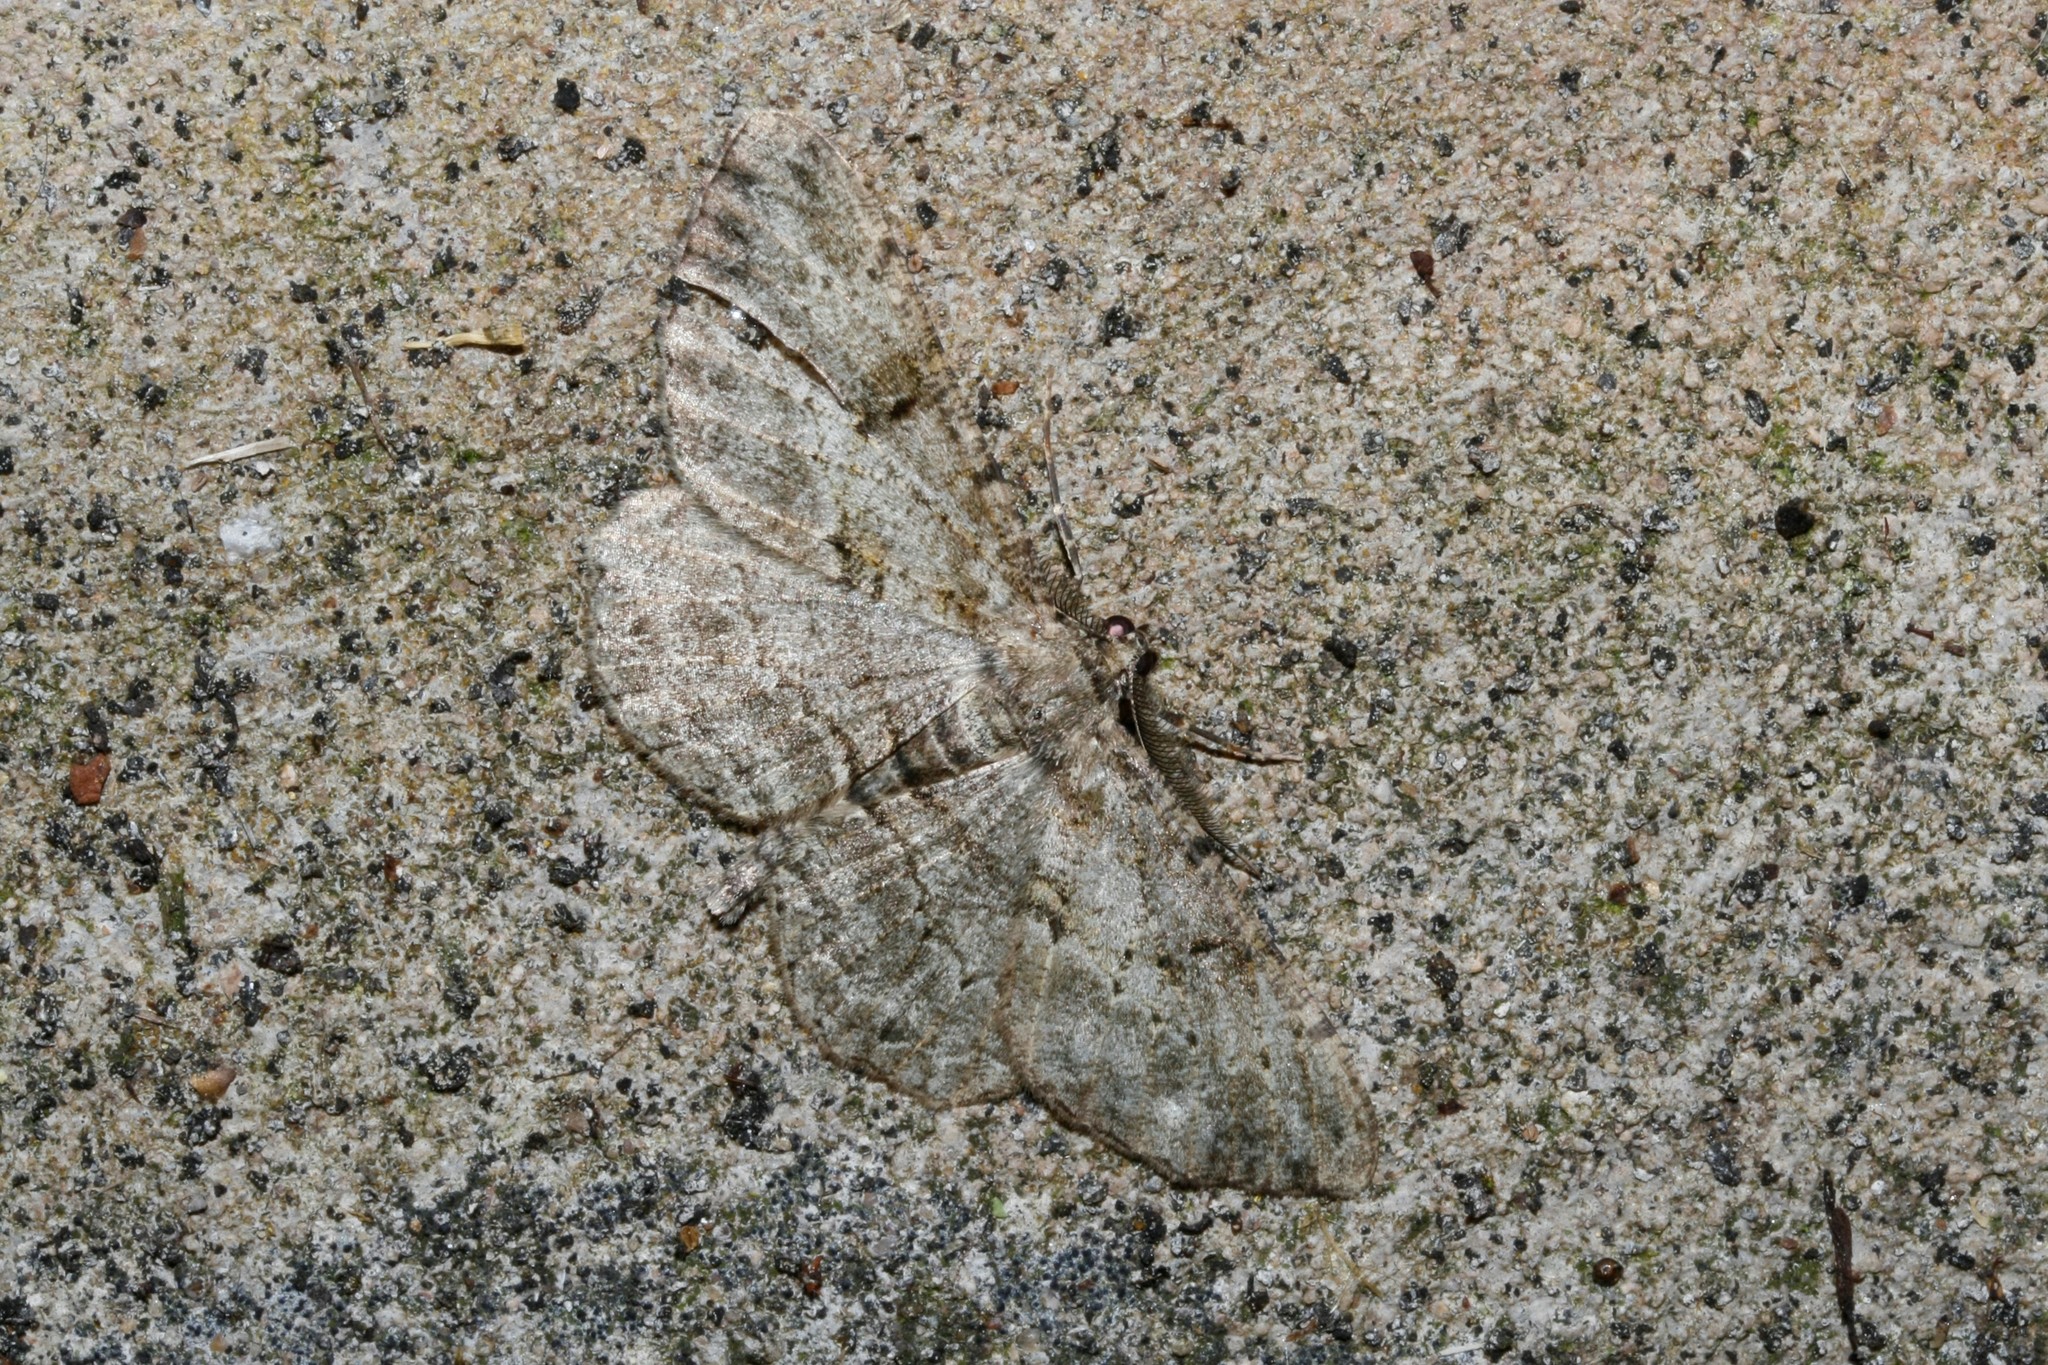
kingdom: Animalia
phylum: Arthropoda
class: Insecta
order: Lepidoptera
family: Geometridae
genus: Peribatodes
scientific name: Peribatodes rhomboidaria
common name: Willow beauty
